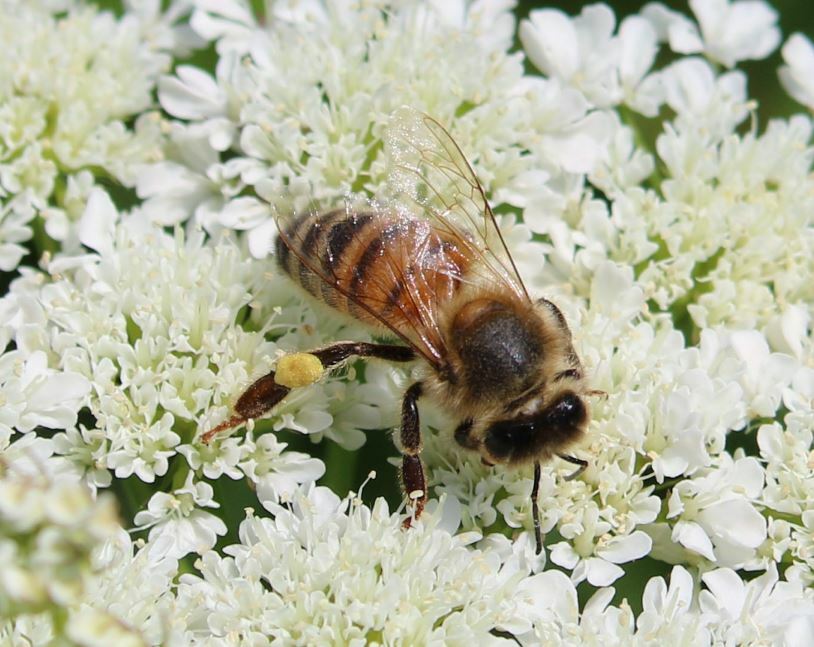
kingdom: Animalia
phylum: Arthropoda
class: Insecta
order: Hymenoptera
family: Apidae
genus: Apis
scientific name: Apis mellifera
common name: Honey bee
